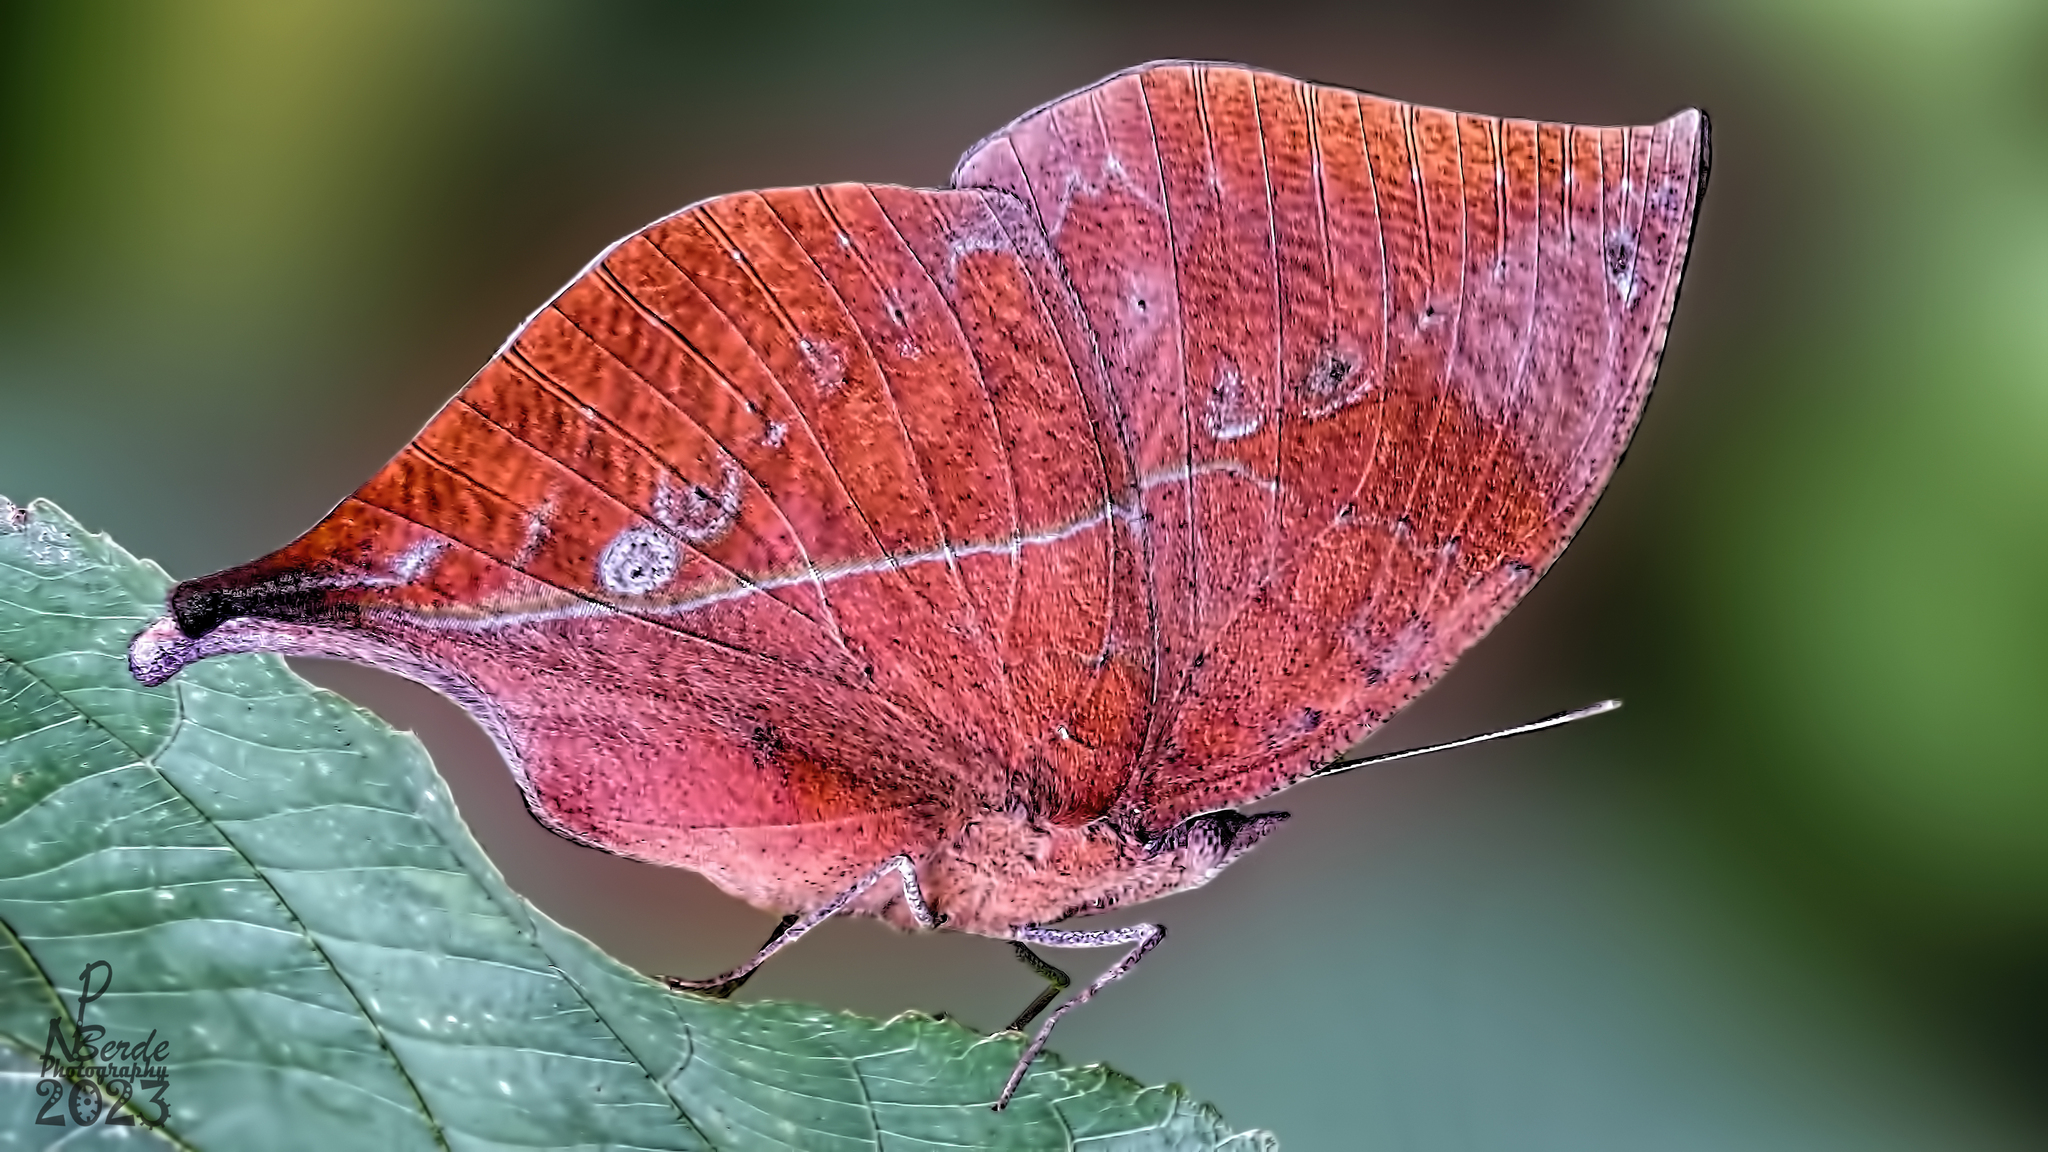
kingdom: Animalia
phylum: Arthropoda
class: Insecta
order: Lepidoptera
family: Nymphalidae
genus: Kallima
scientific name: Kallima horsfieldii
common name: Sahyadri blue oakleaf
